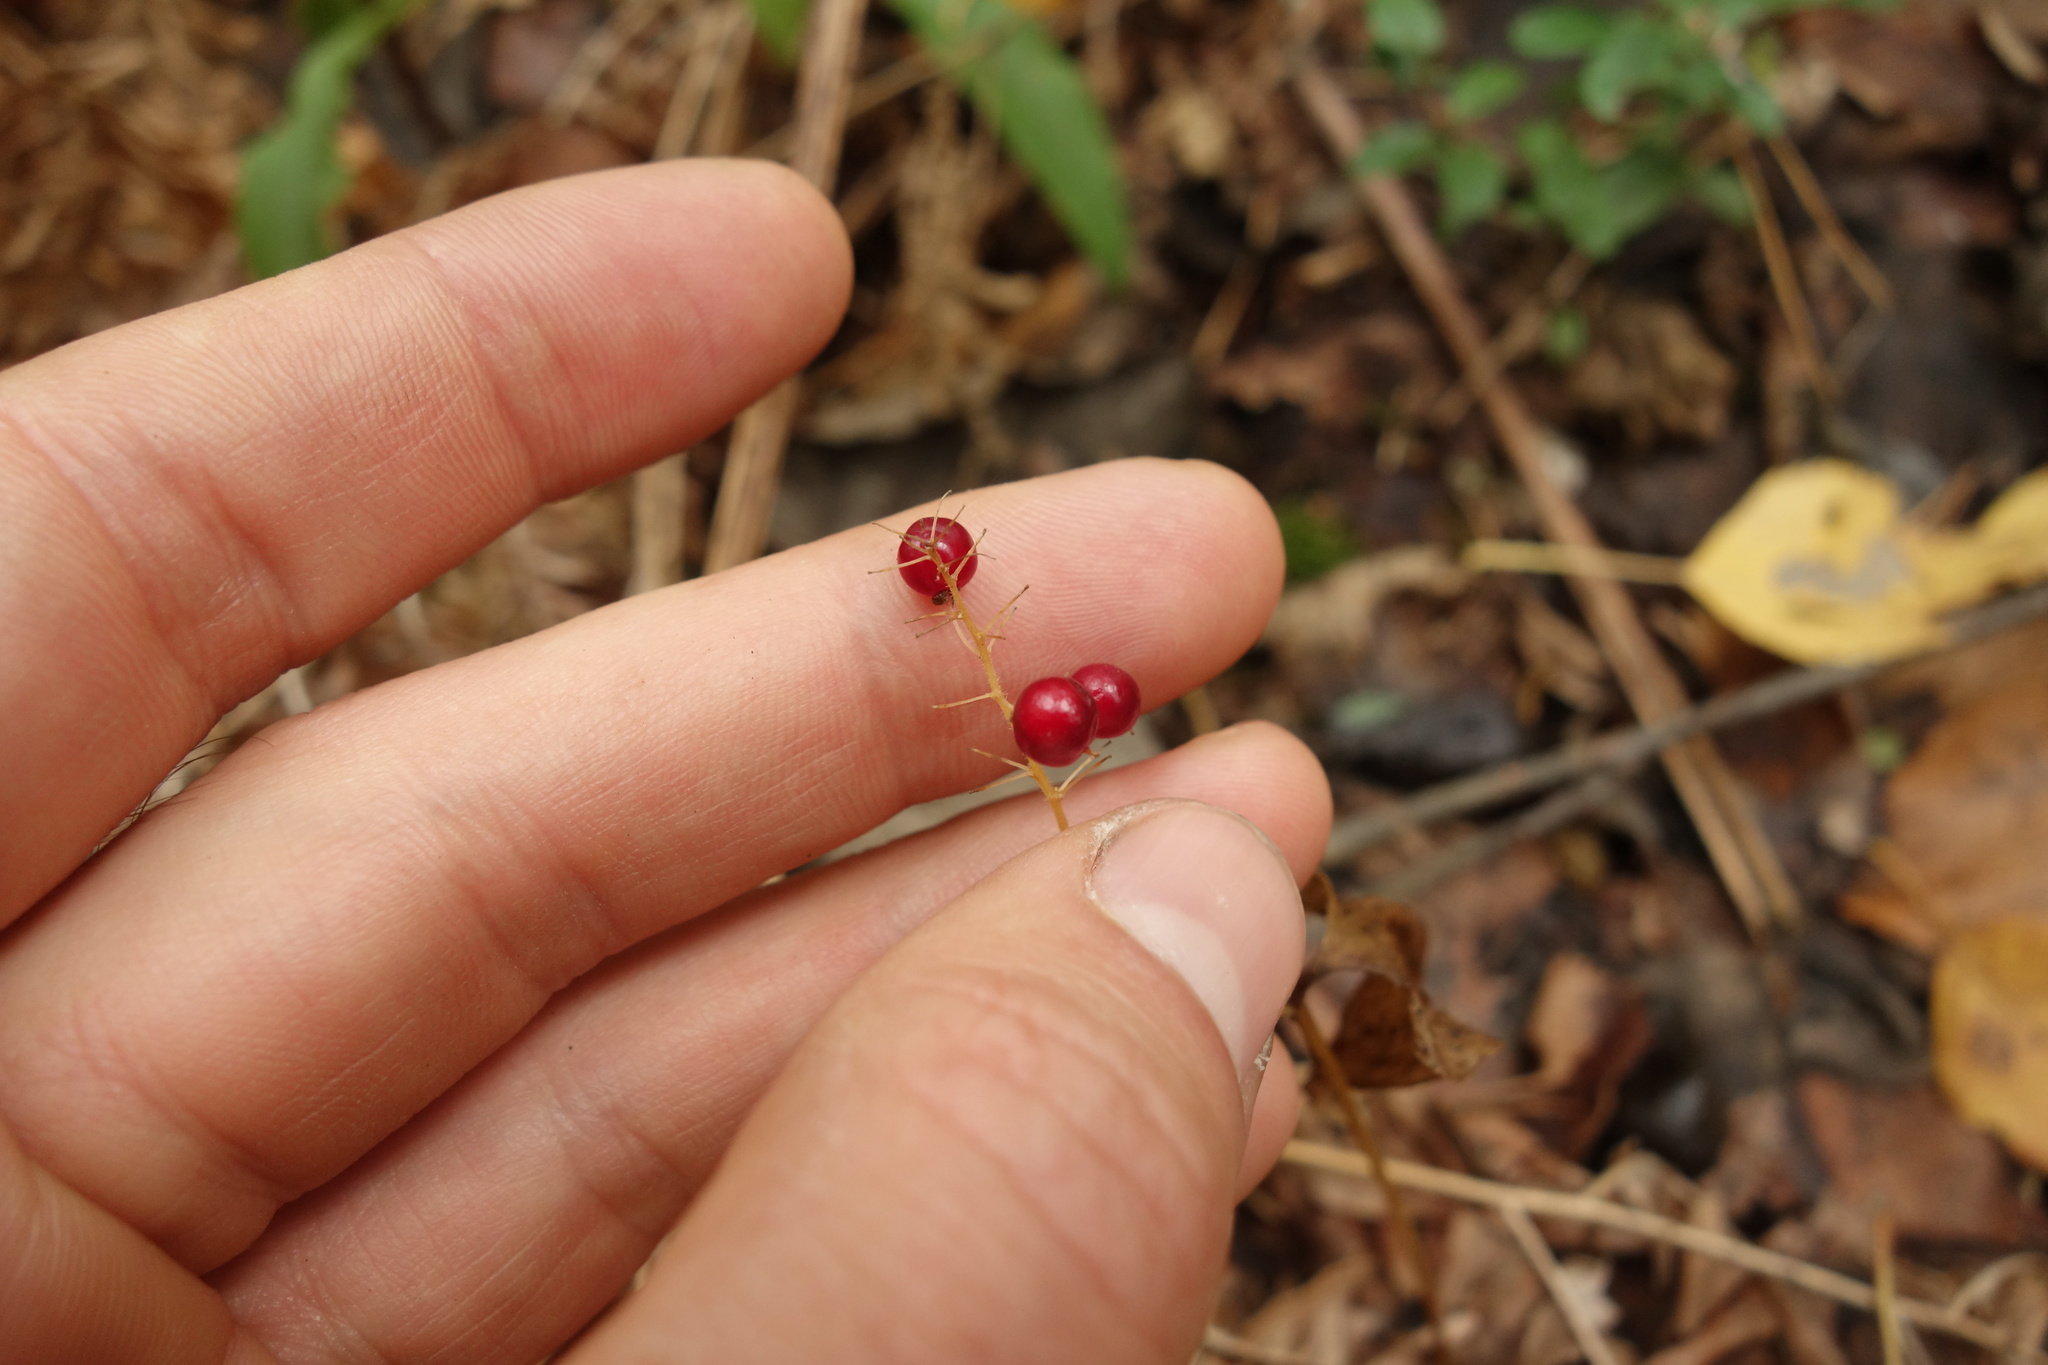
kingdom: Plantae
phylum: Tracheophyta
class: Liliopsida
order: Asparagales
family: Asparagaceae
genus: Maianthemum
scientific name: Maianthemum bifolium
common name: May lily
